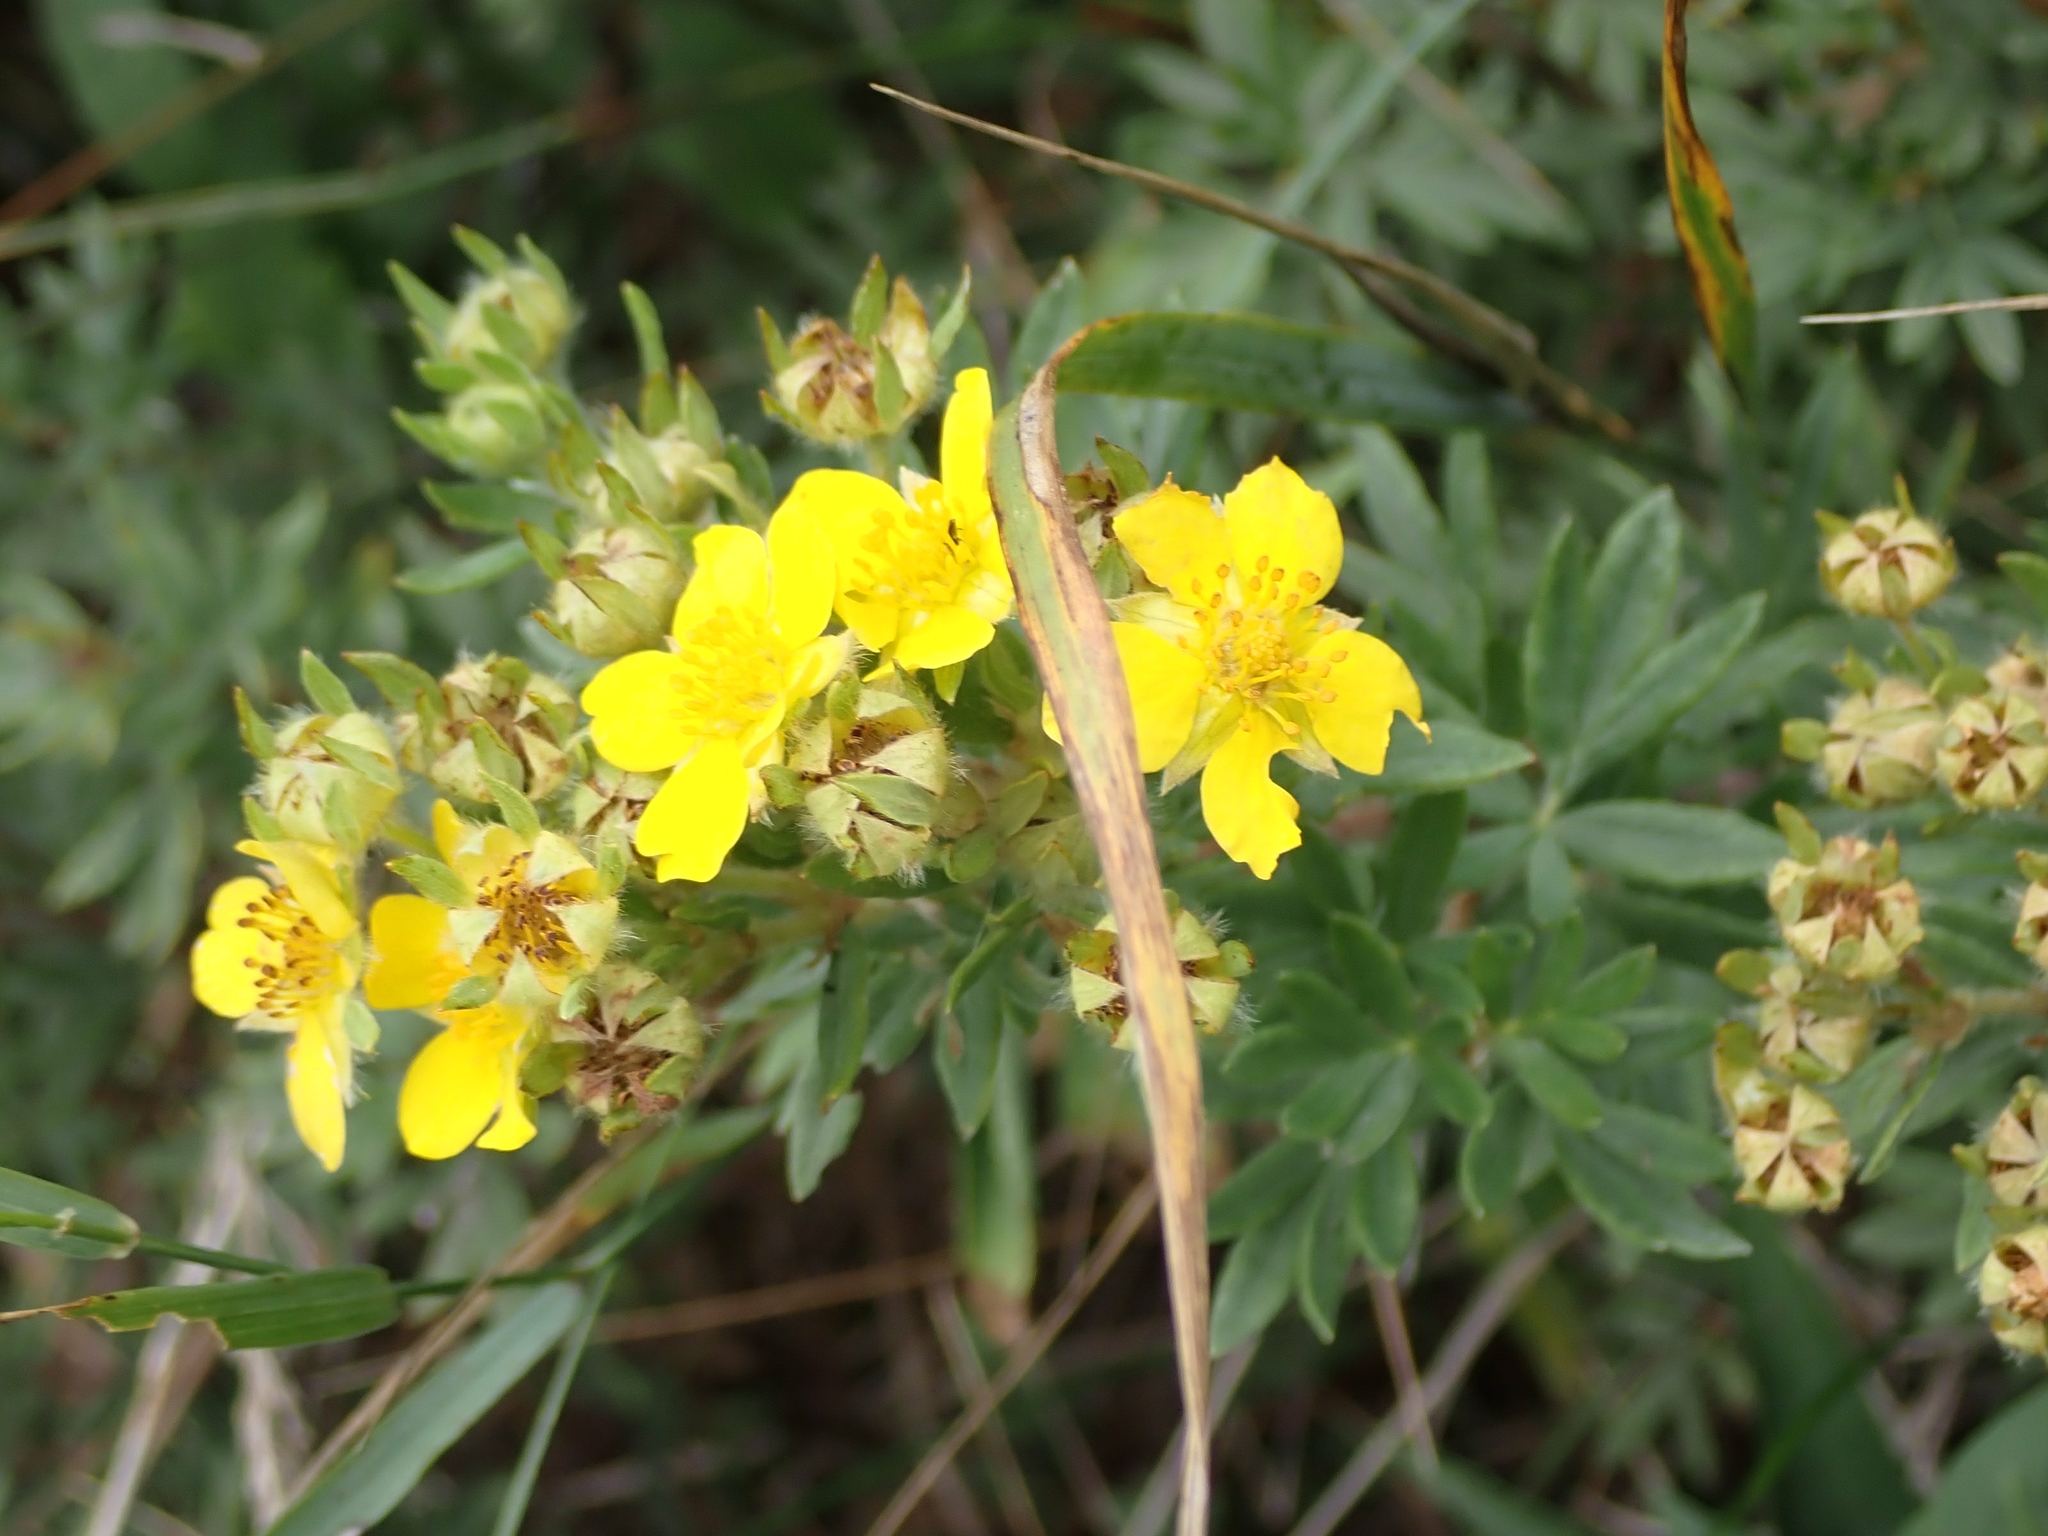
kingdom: Plantae
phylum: Tracheophyta
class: Magnoliopsida
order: Rosales
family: Rosaceae
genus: Dasiphora
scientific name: Dasiphora fruticosa
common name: Shrubby cinquefoil
